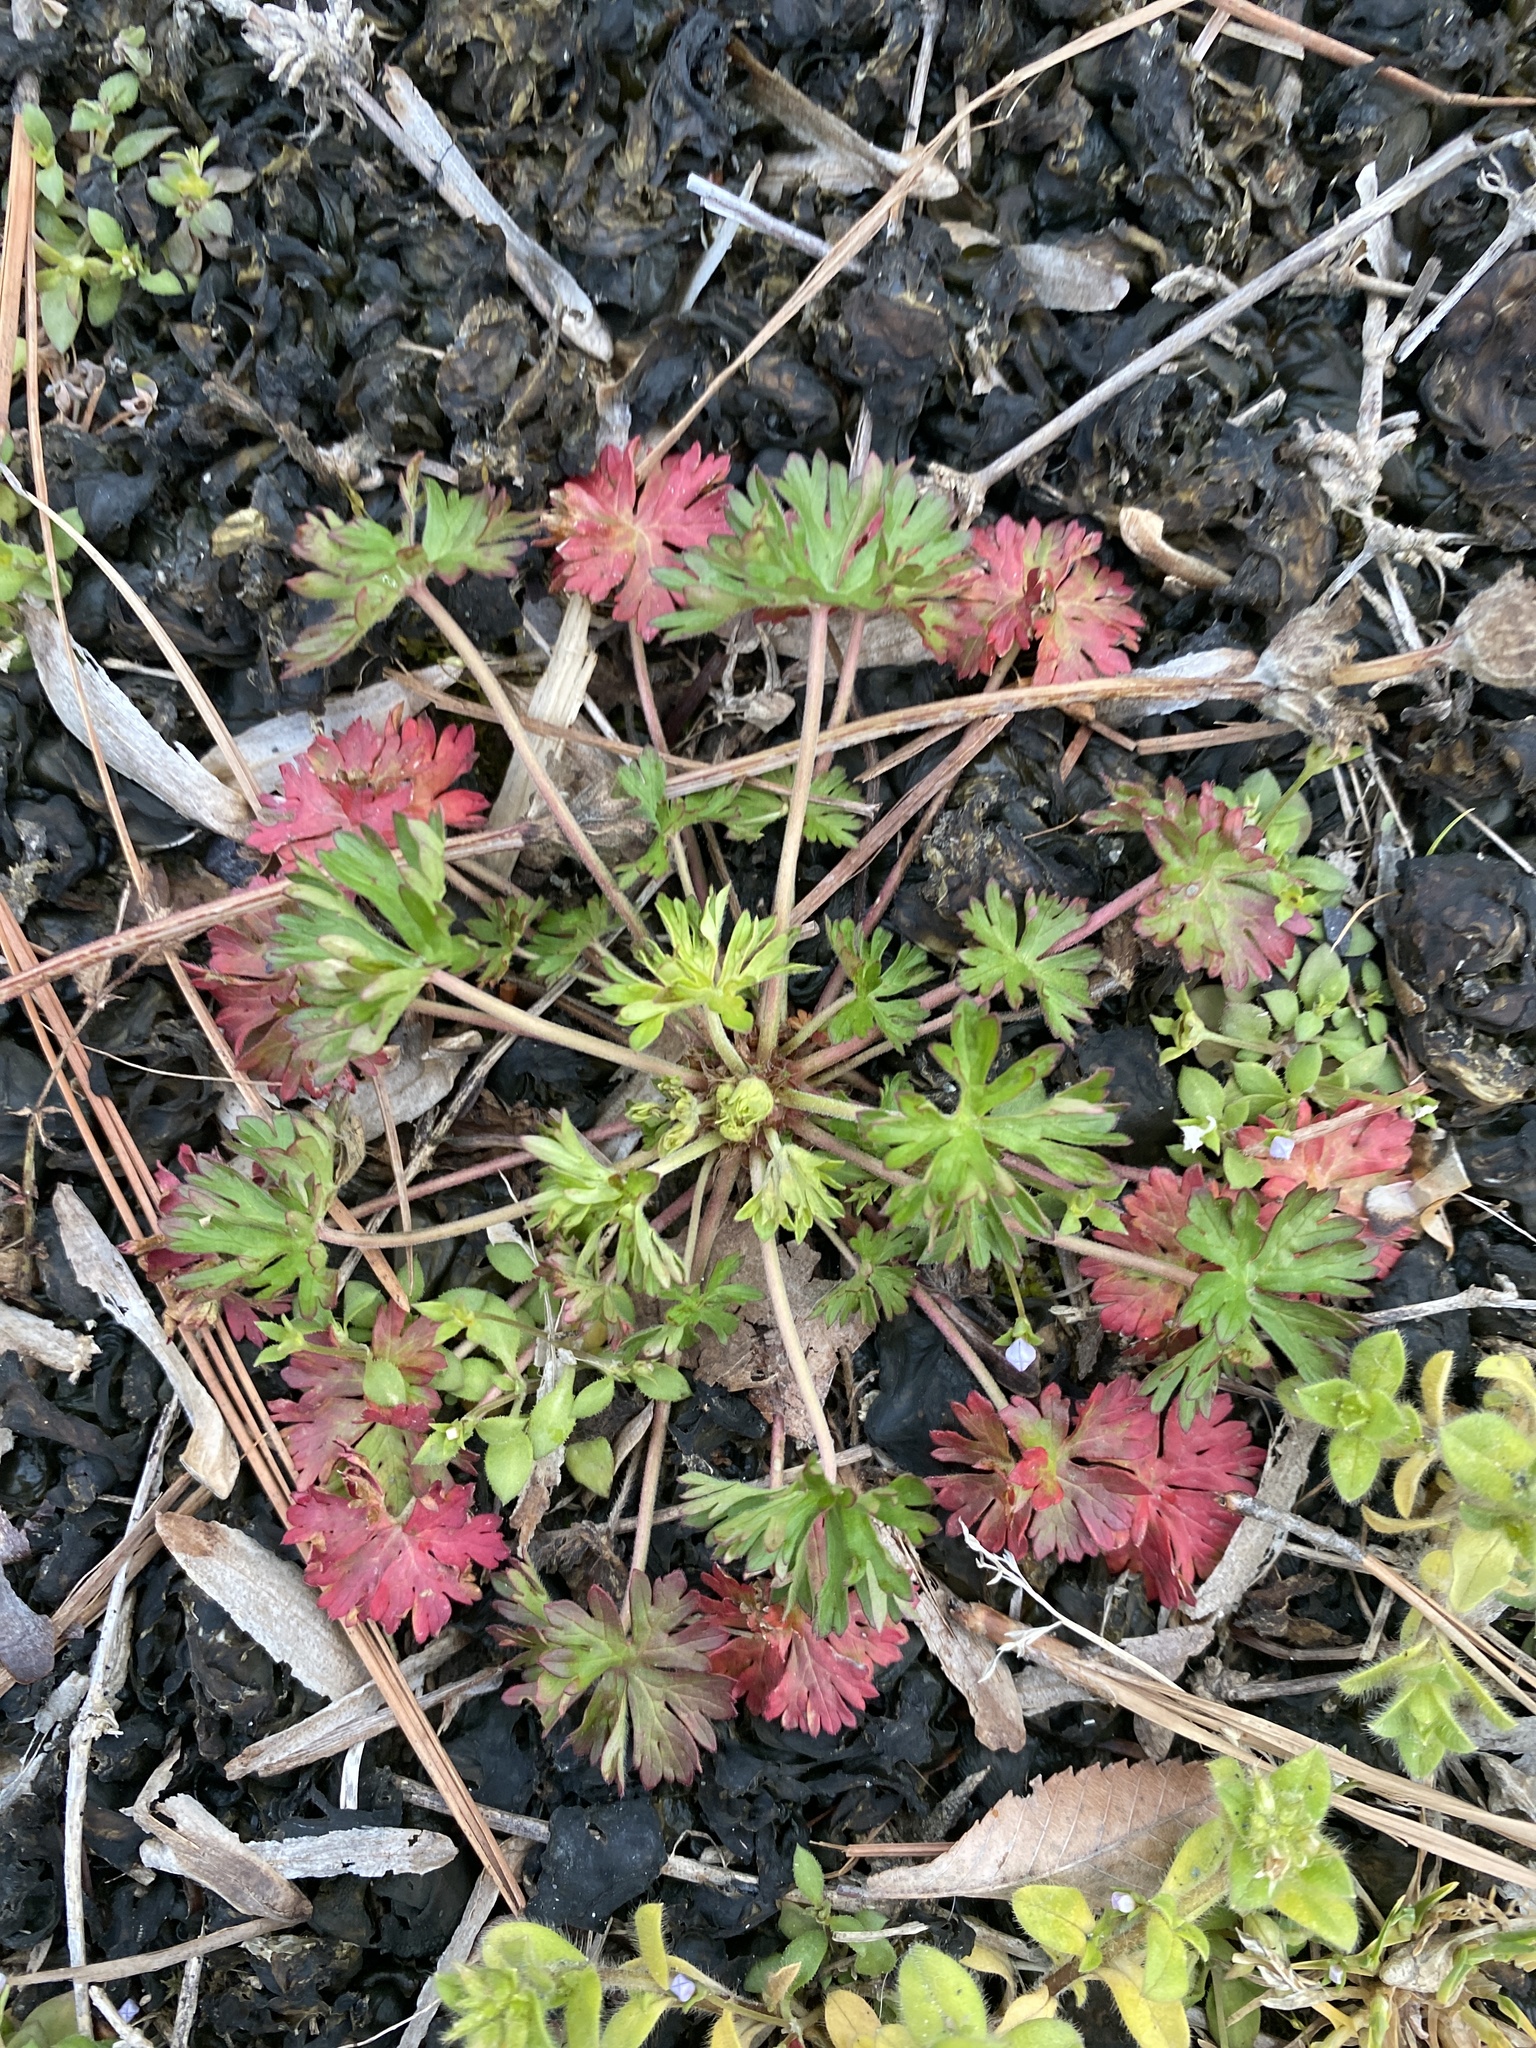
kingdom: Plantae
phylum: Tracheophyta
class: Magnoliopsida
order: Geraniales
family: Geraniaceae
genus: Geranium
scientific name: Geranium carolinianum
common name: Carolina crane's-bill
